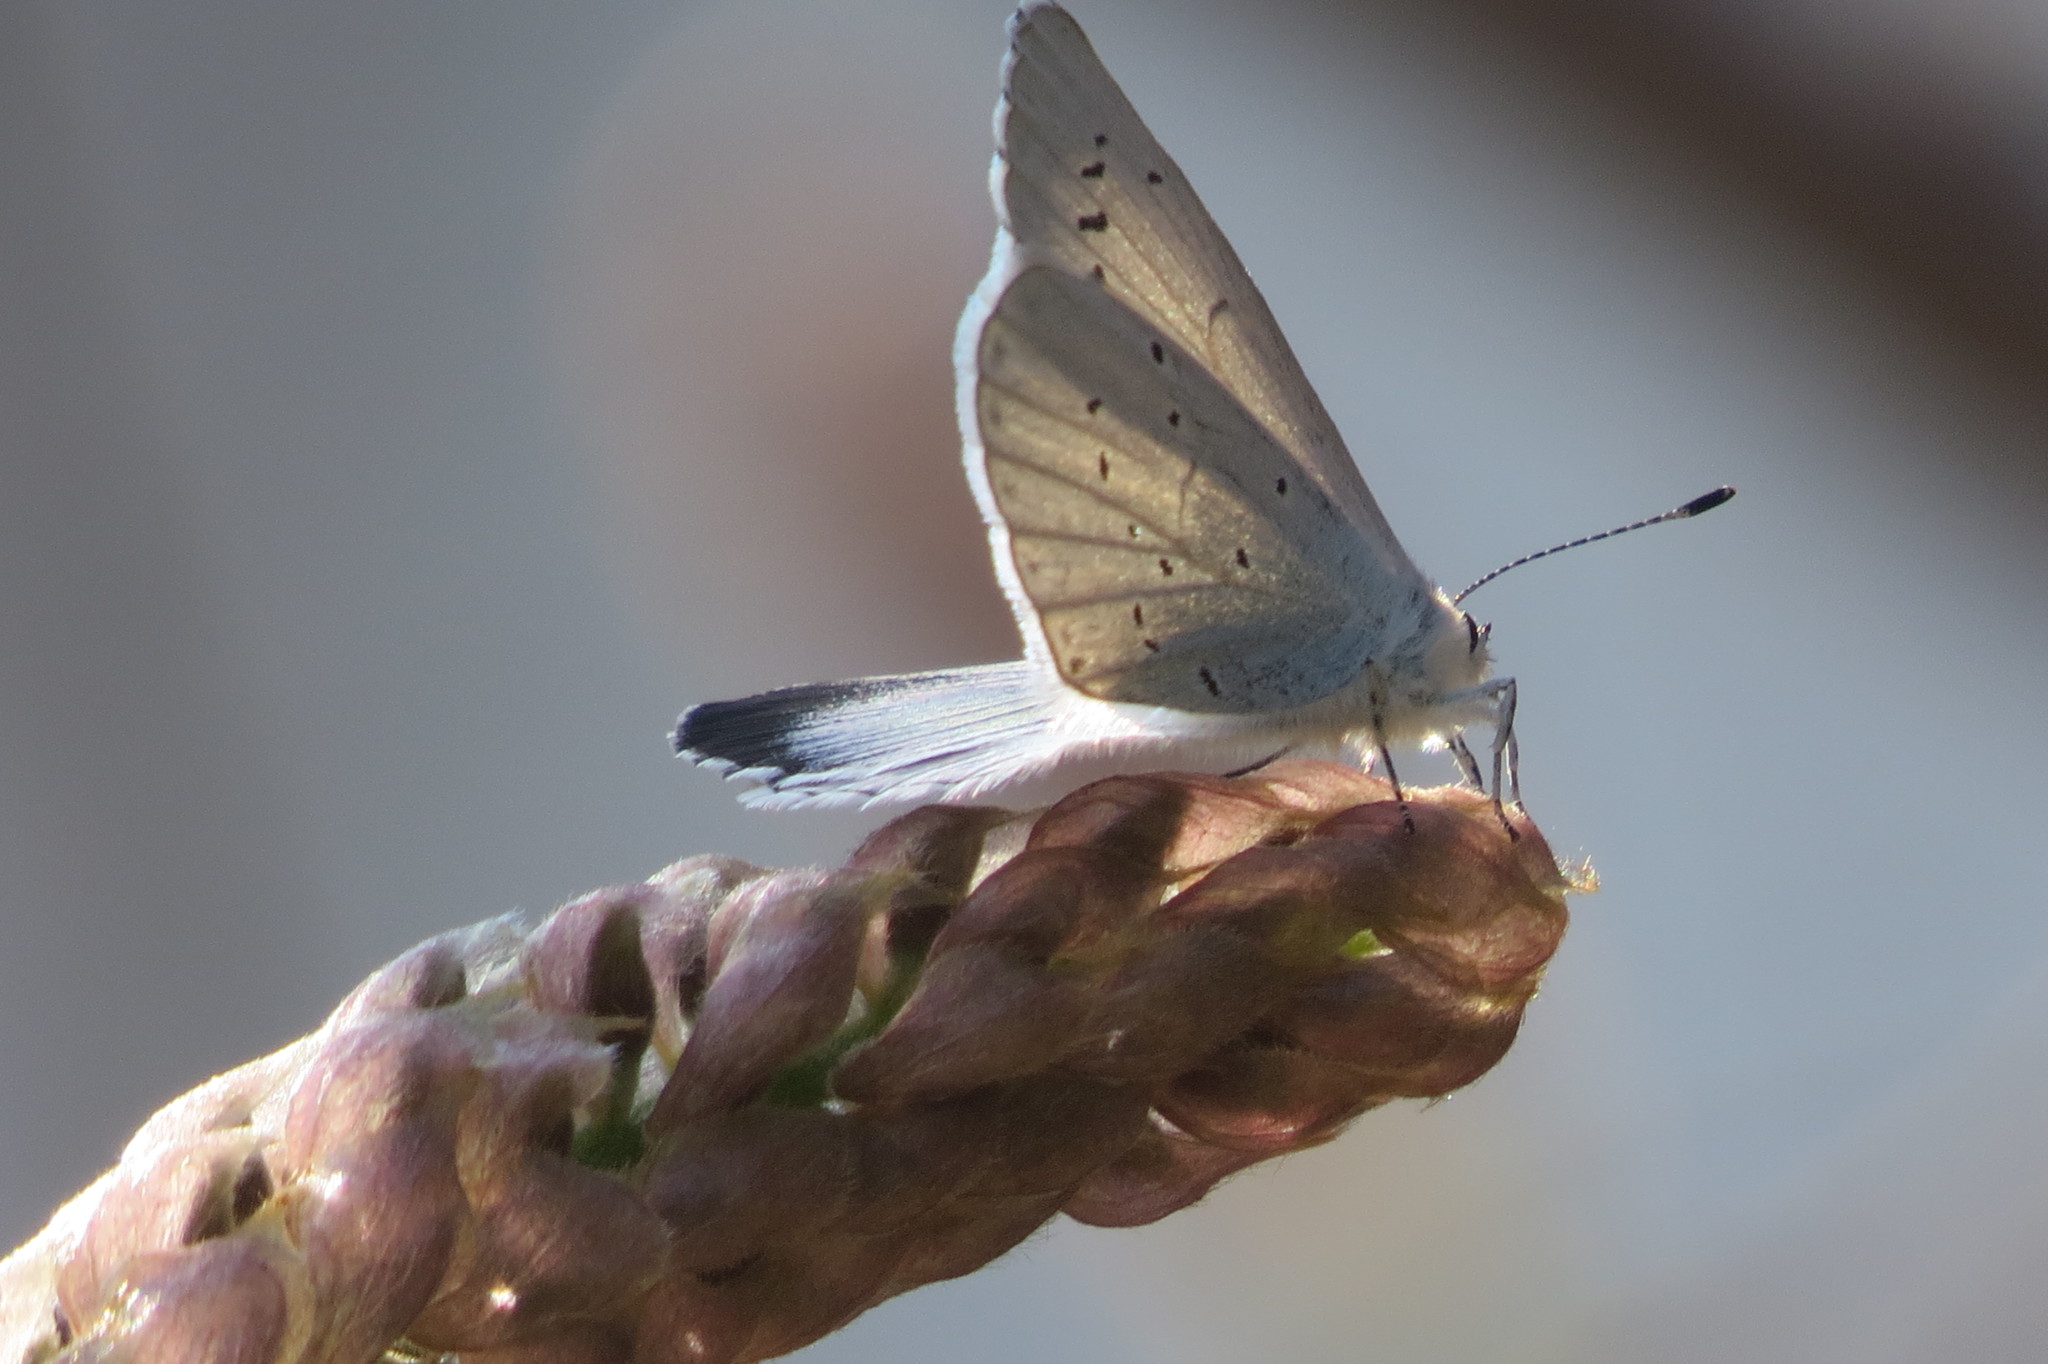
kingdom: Animalia
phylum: Arthropoda
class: Insecta
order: Lepidoptera
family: Lycaenidae
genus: Celastrina
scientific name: Celastrina argiolus
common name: Holly blue
